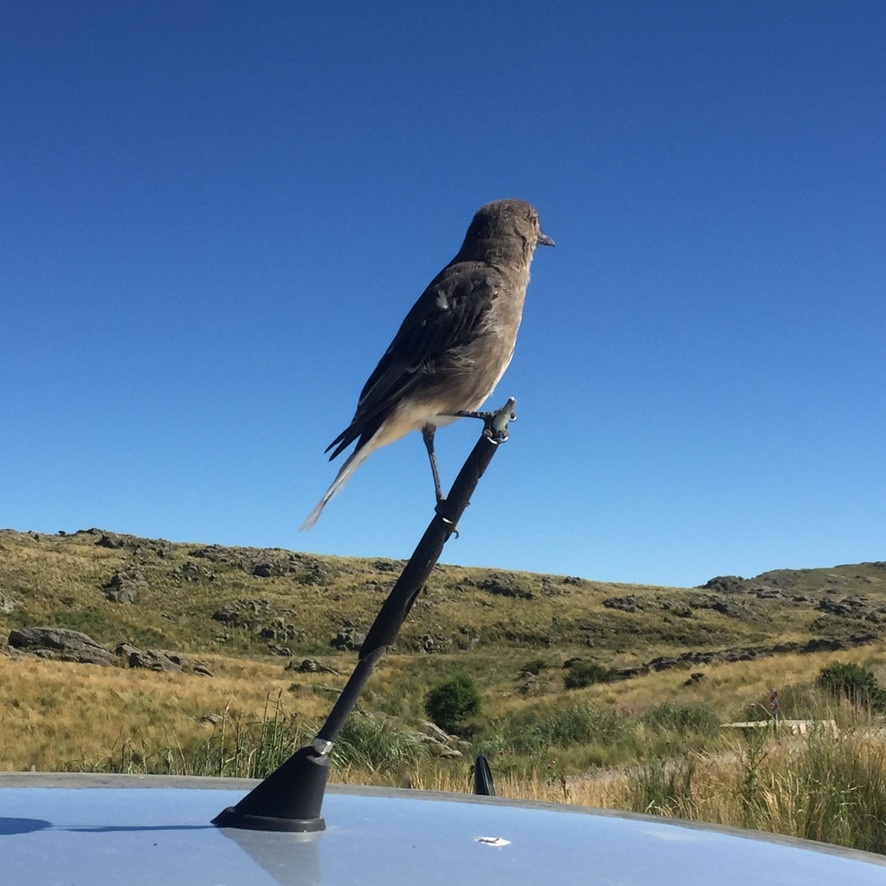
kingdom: Animalia
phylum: Chordata
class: Aves
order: Passeriformes
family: Tyrannidae
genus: Agriornis
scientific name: Agriornis montanus
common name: Black-billed shrike-tyrant
